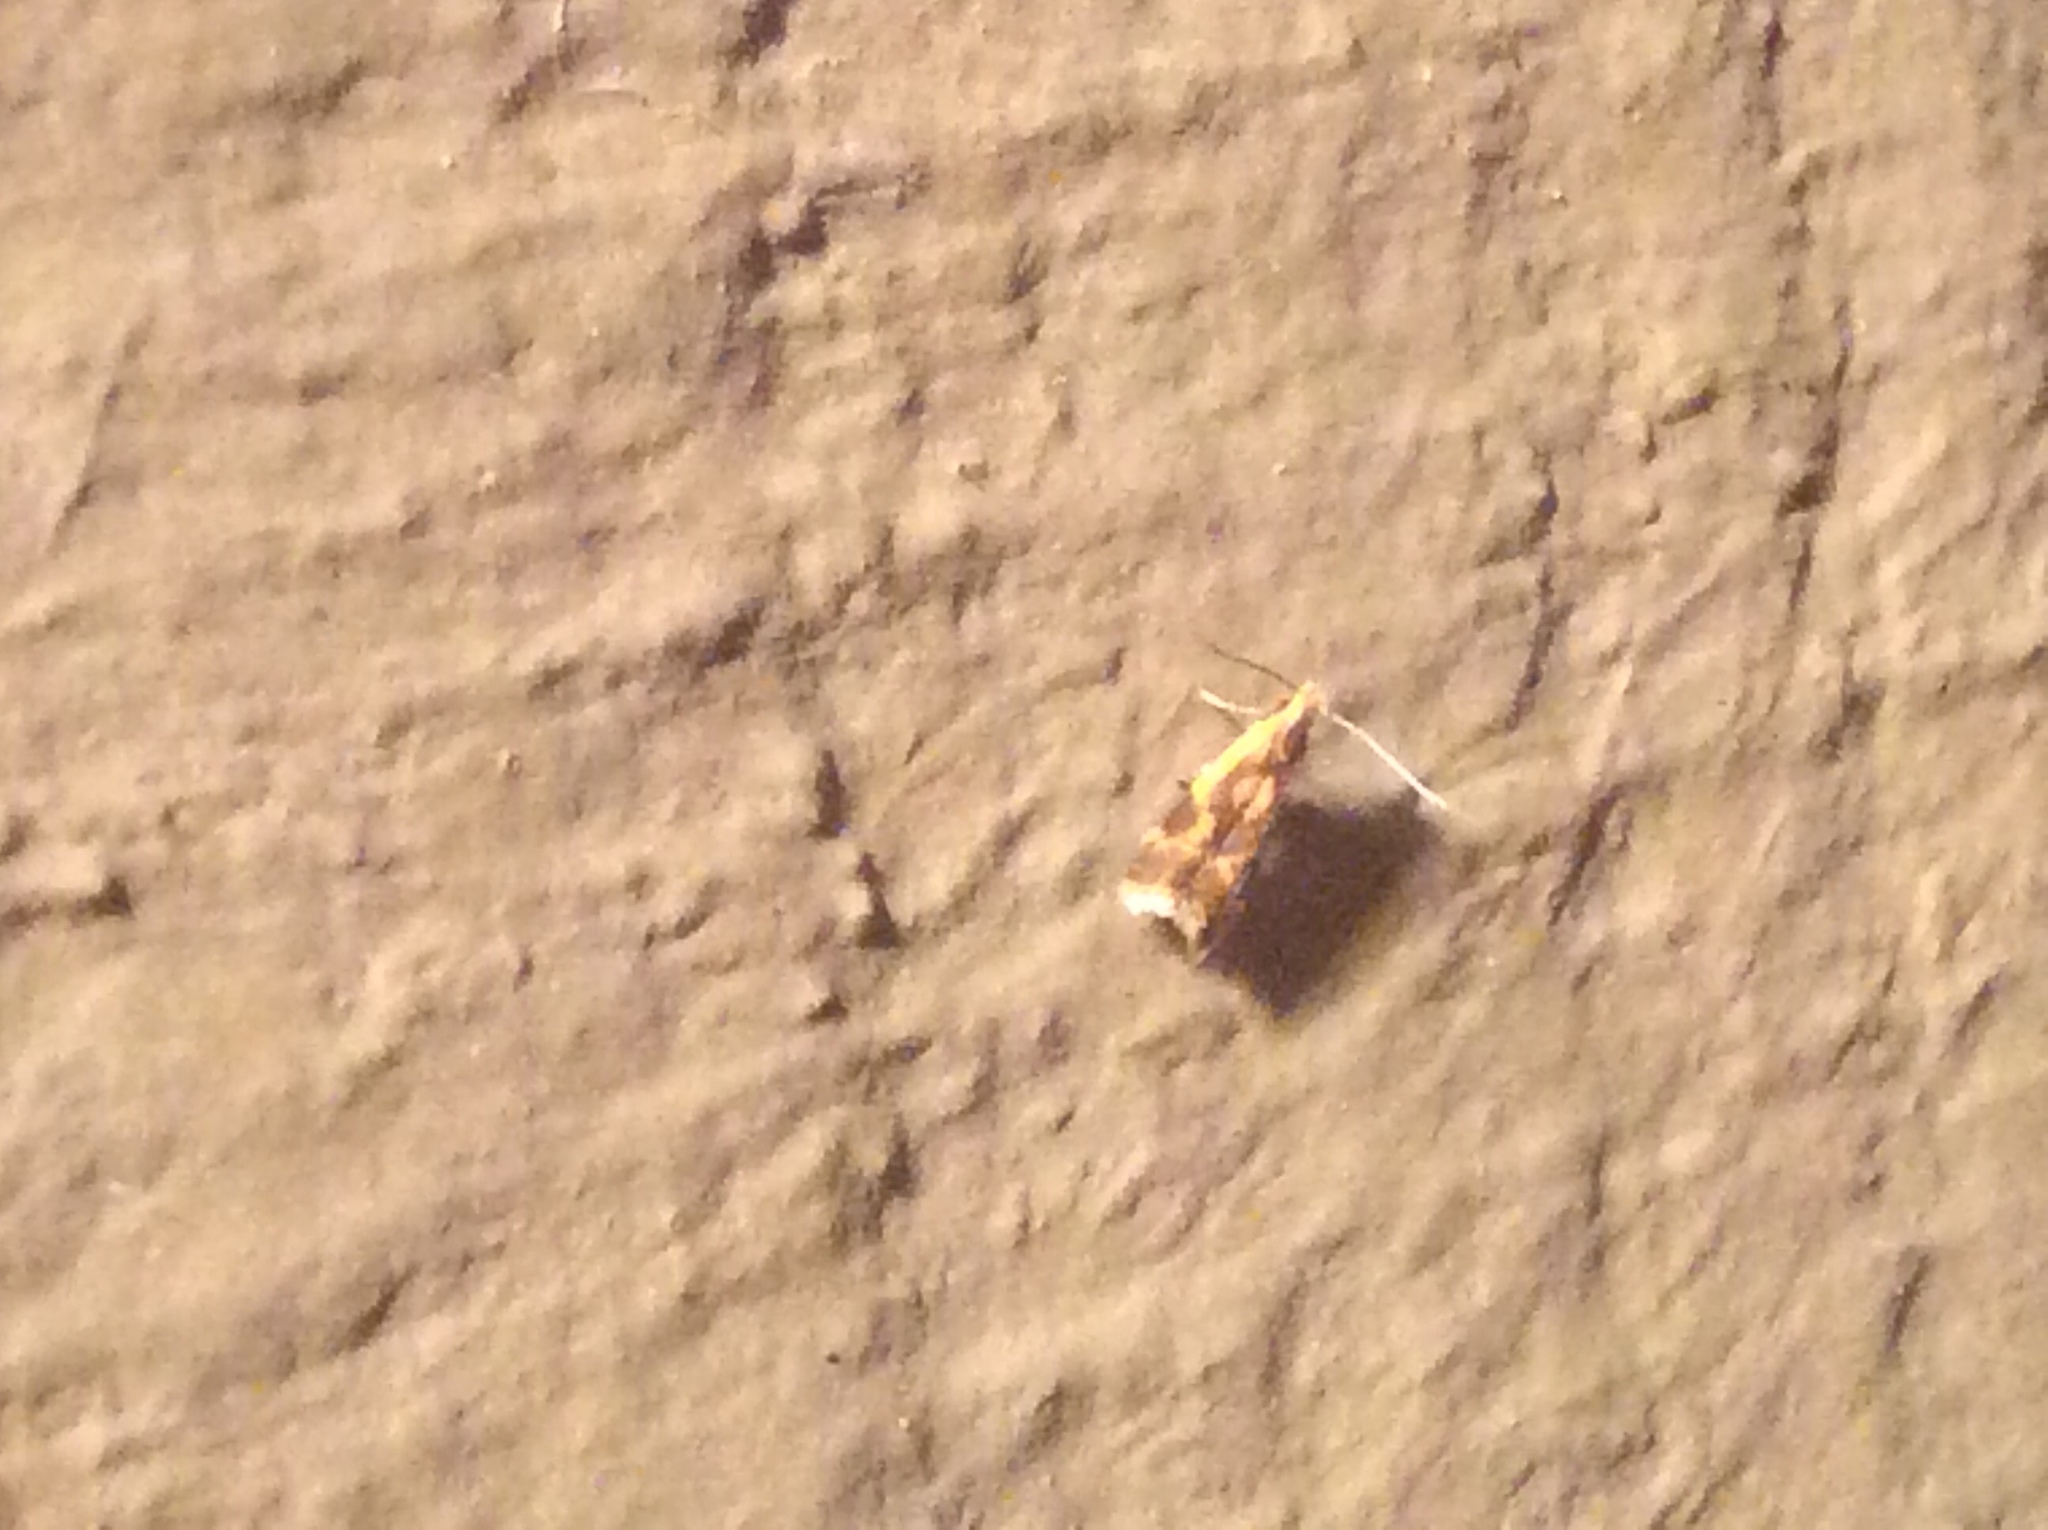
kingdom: Animalia
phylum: Arthropoda
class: Insecta
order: Lepidoptera
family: Gelechiidae
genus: Dichomeris
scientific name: Dichomeris siren
